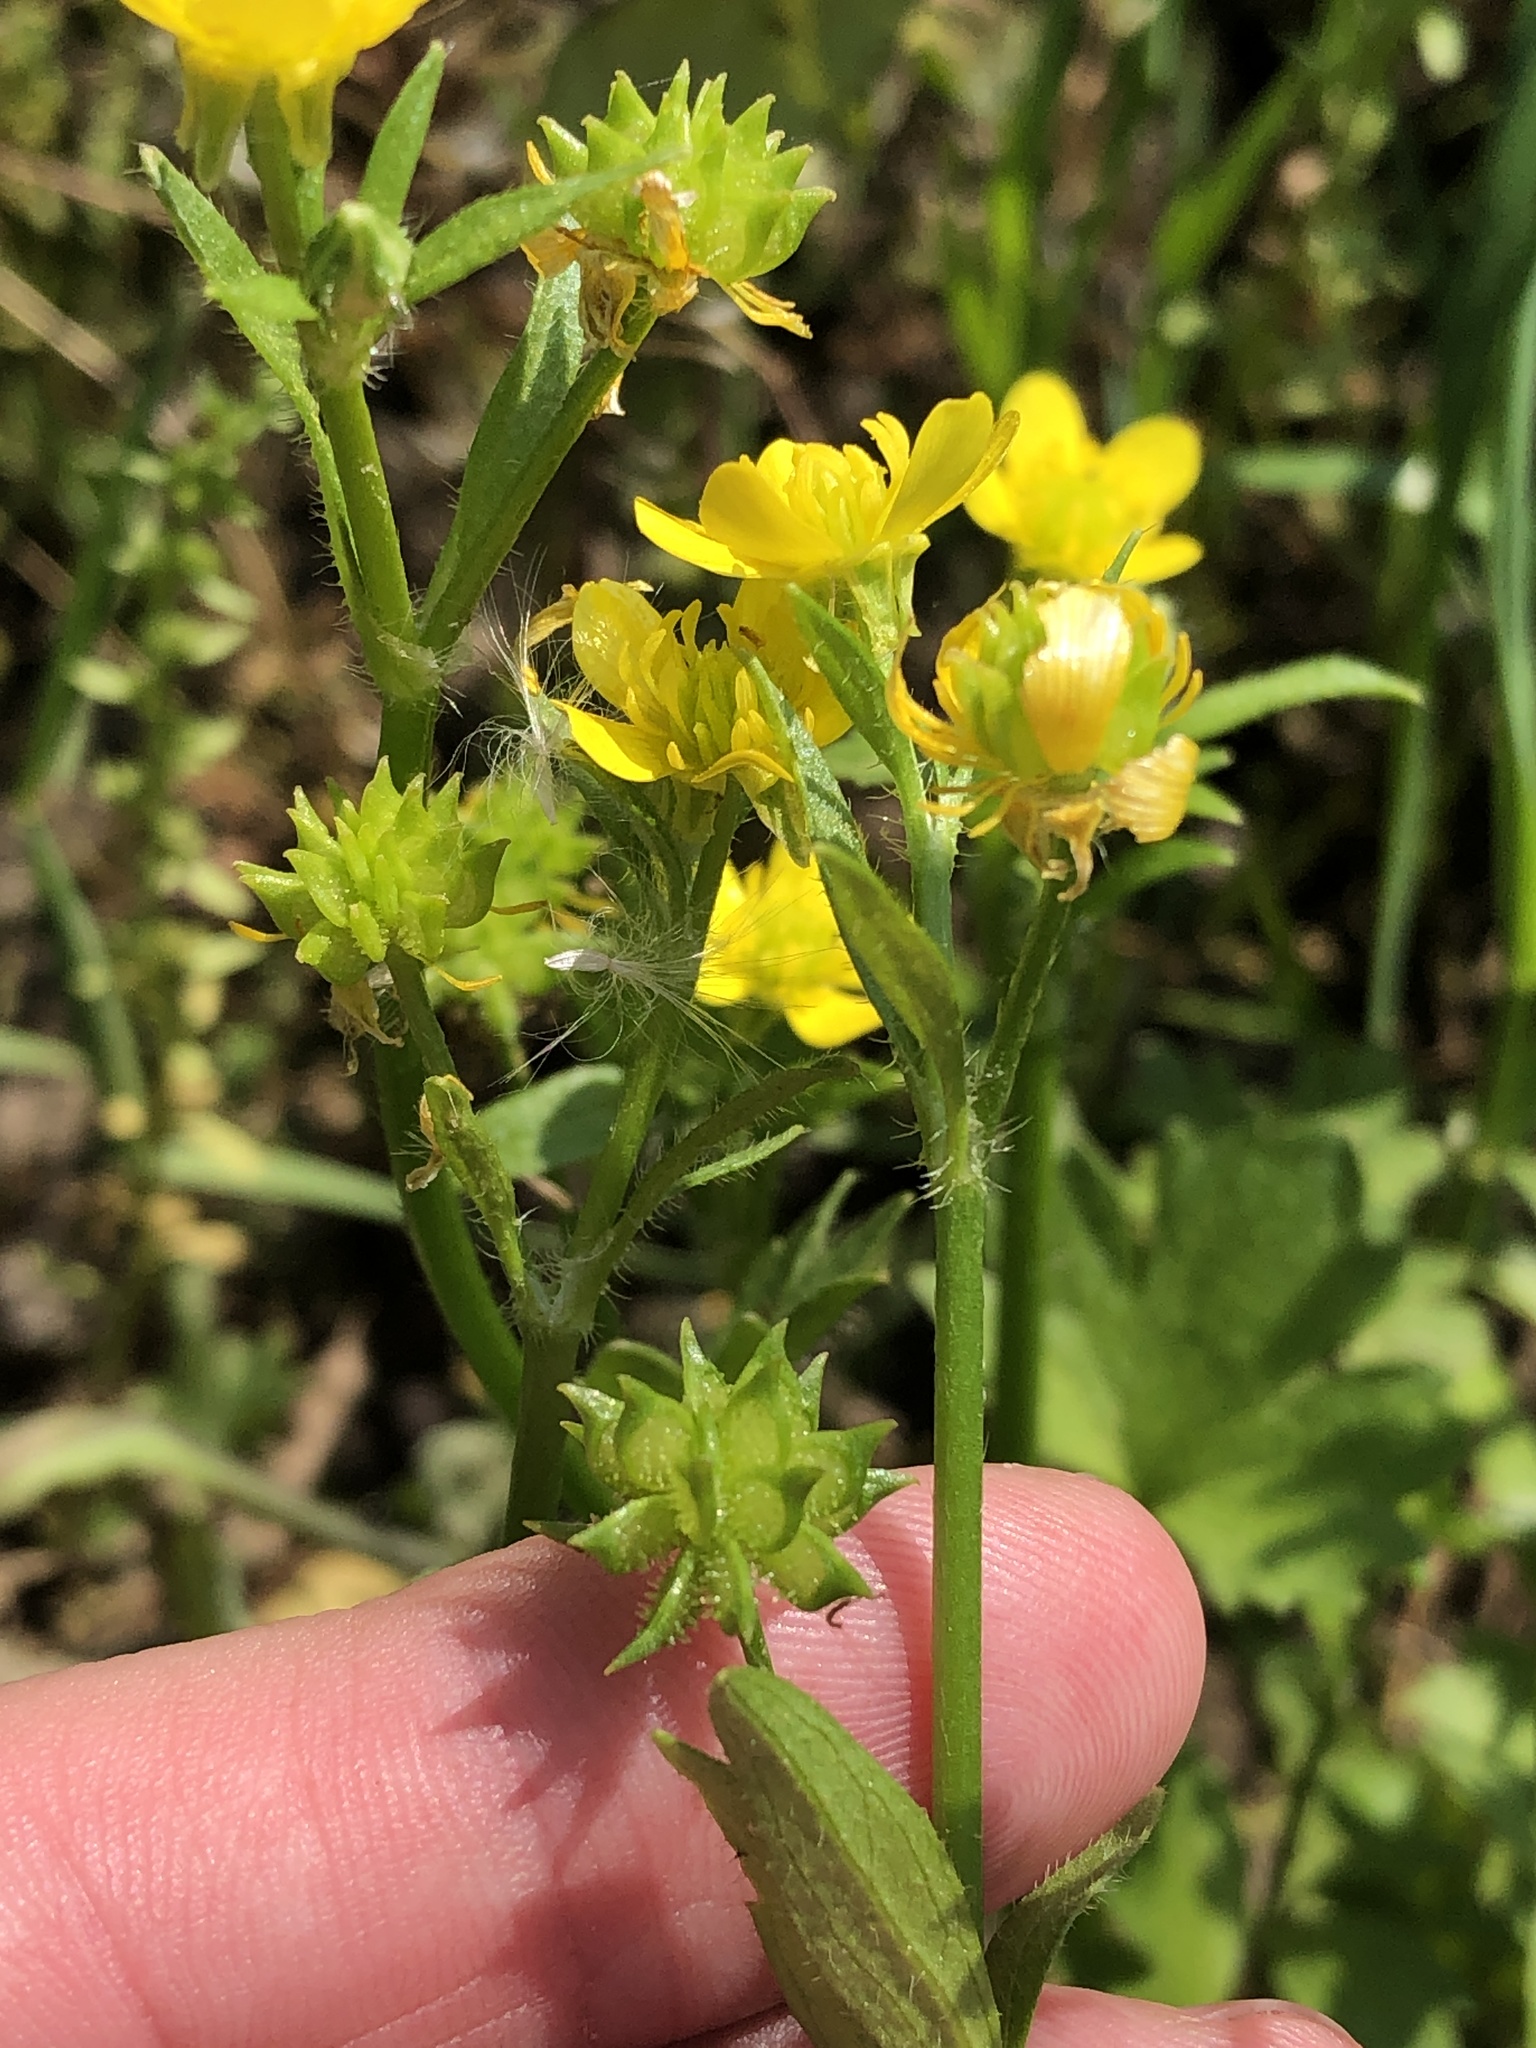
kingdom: Plantae
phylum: Tracheophyta
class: Magnoliopsida
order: Ranunculales
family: Ranunculaceae
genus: Ranunculus
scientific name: Ranunculus muricatus
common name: Rough-fruited buttercup
